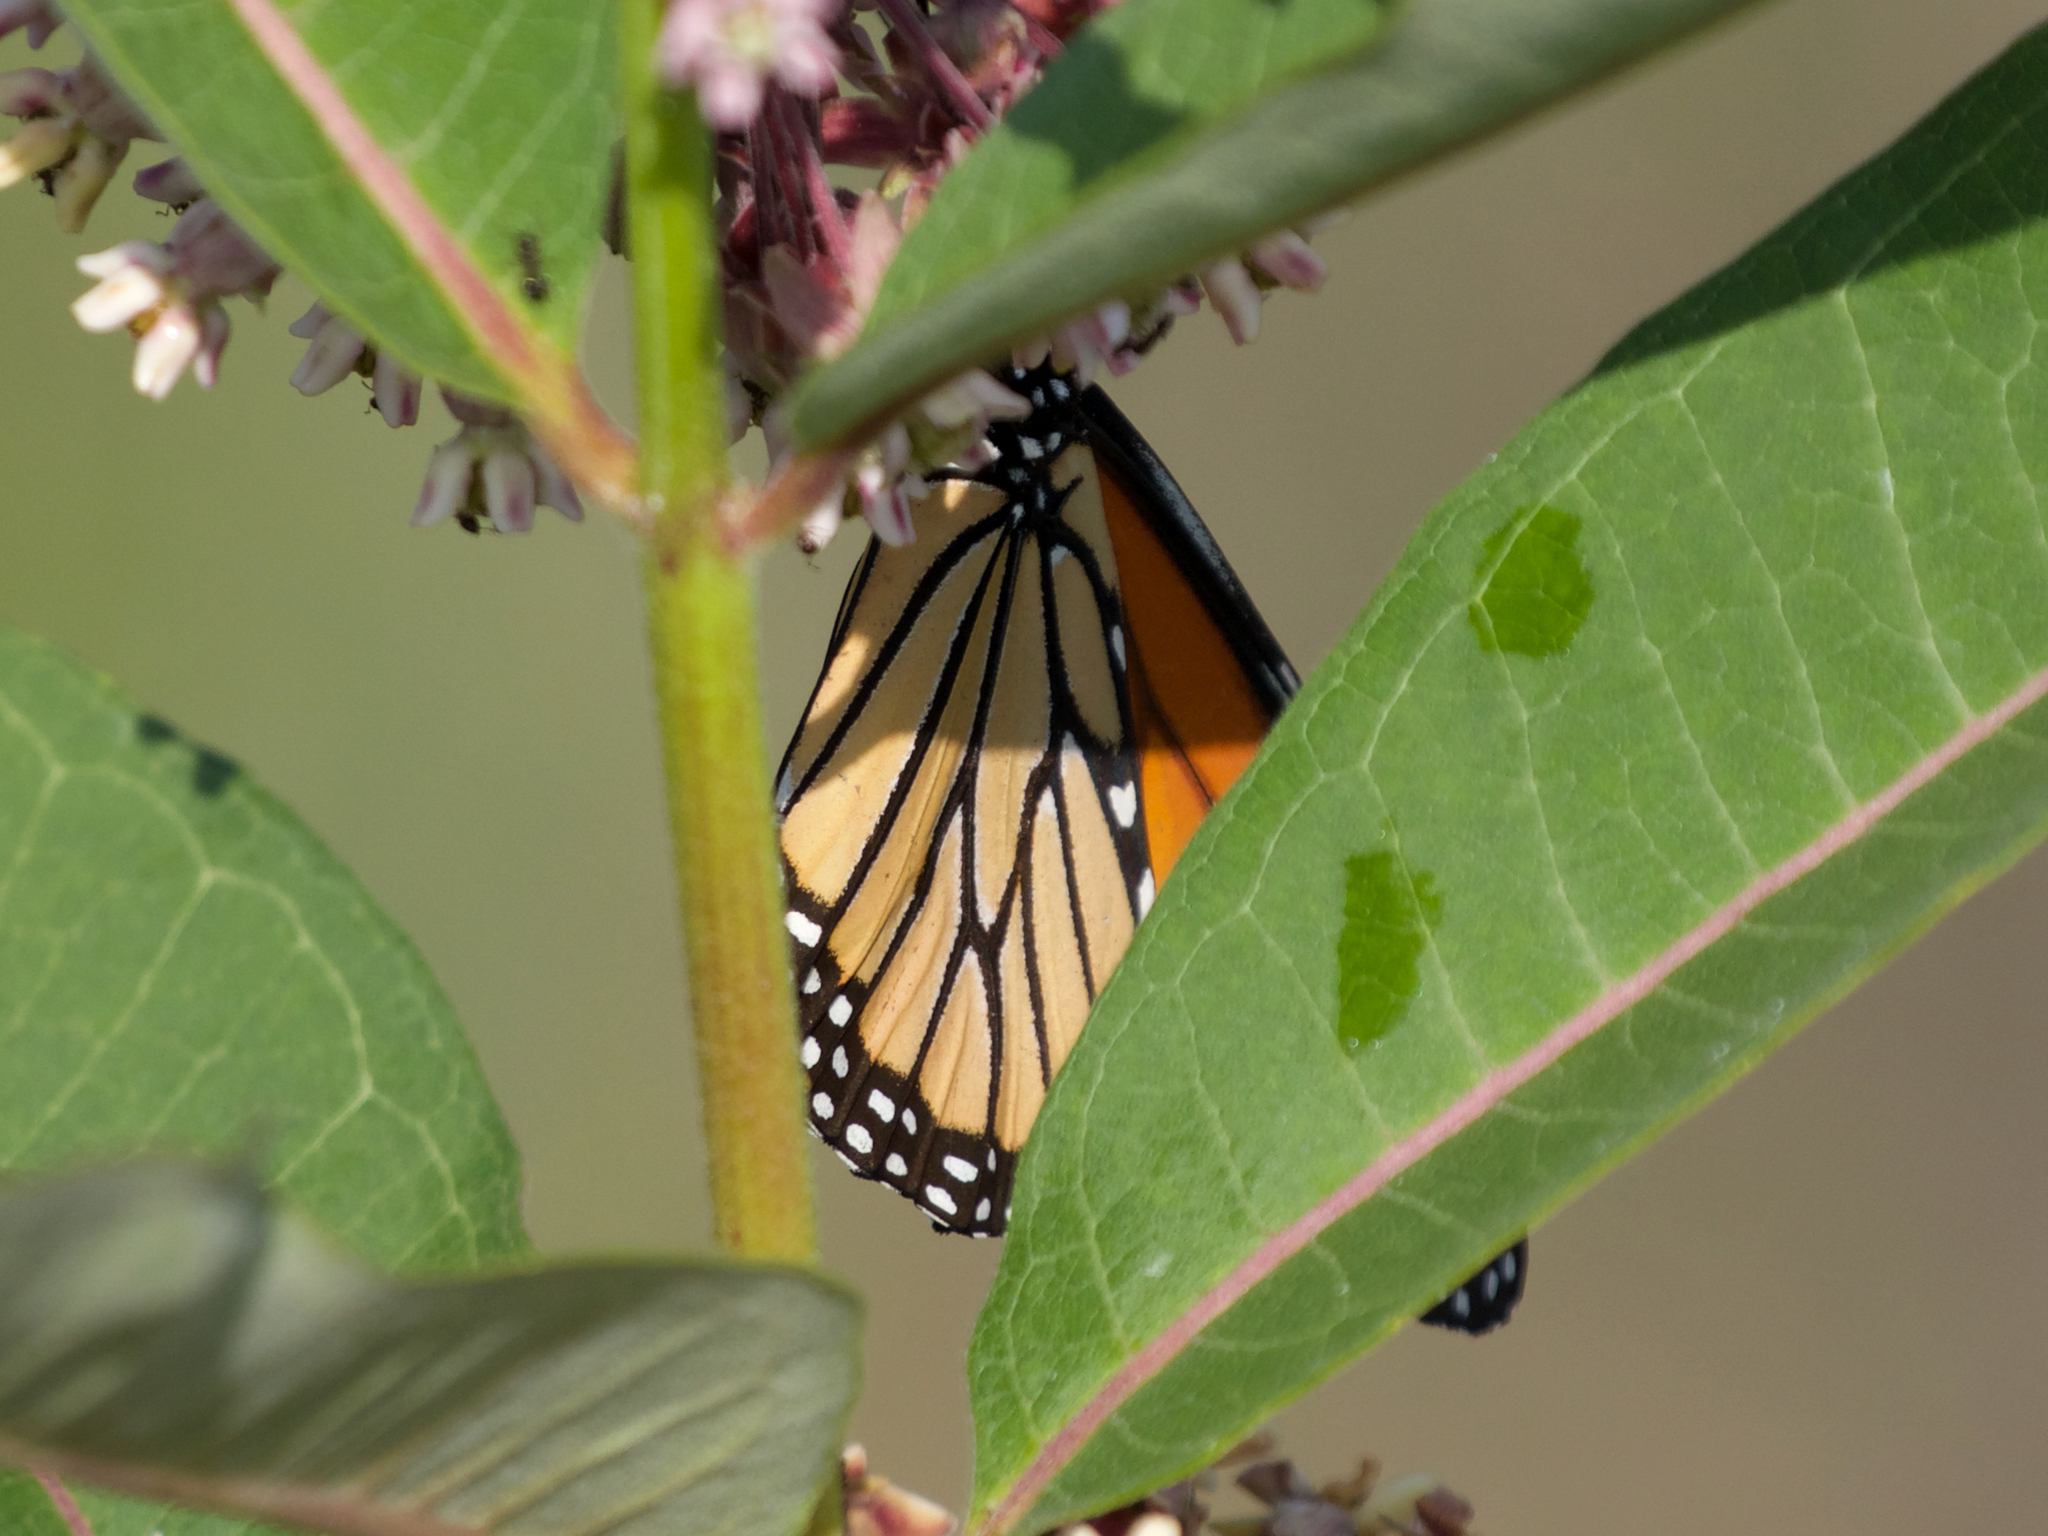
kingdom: Animalia
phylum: Arthropoda
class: Insecta
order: Lepidoptera
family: Nymphalidae
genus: Danaus
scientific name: Danaus plexippus
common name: Monarch
